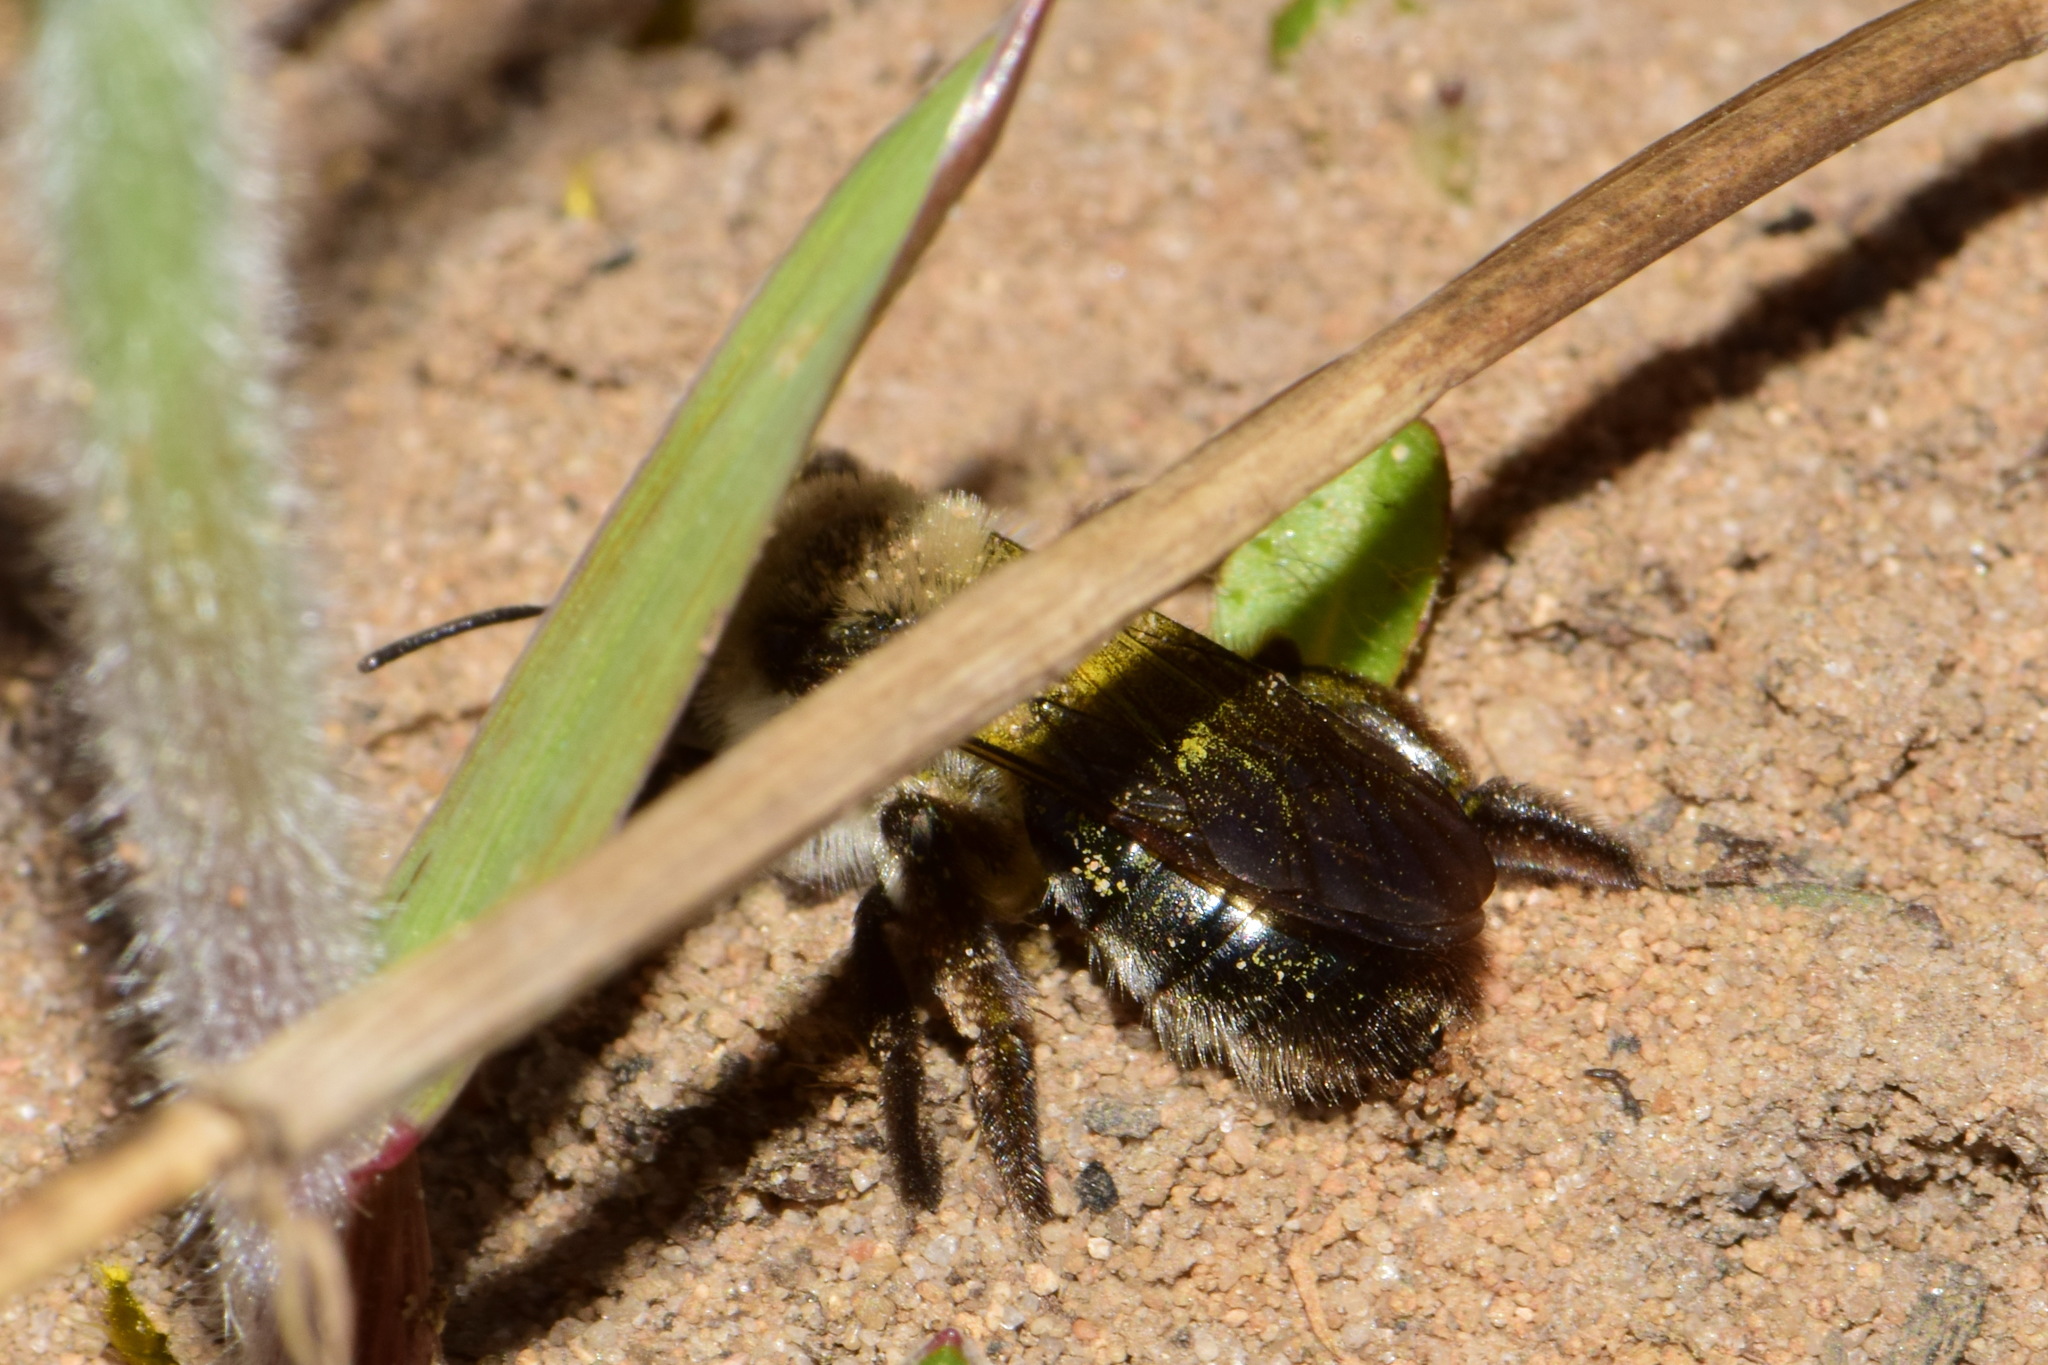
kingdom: Animalia
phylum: Arthropoda
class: Insecta
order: Hymenoptera
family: Andrenidae
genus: Andrena
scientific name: Andrena vaga
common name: Grey-backed mining bee
